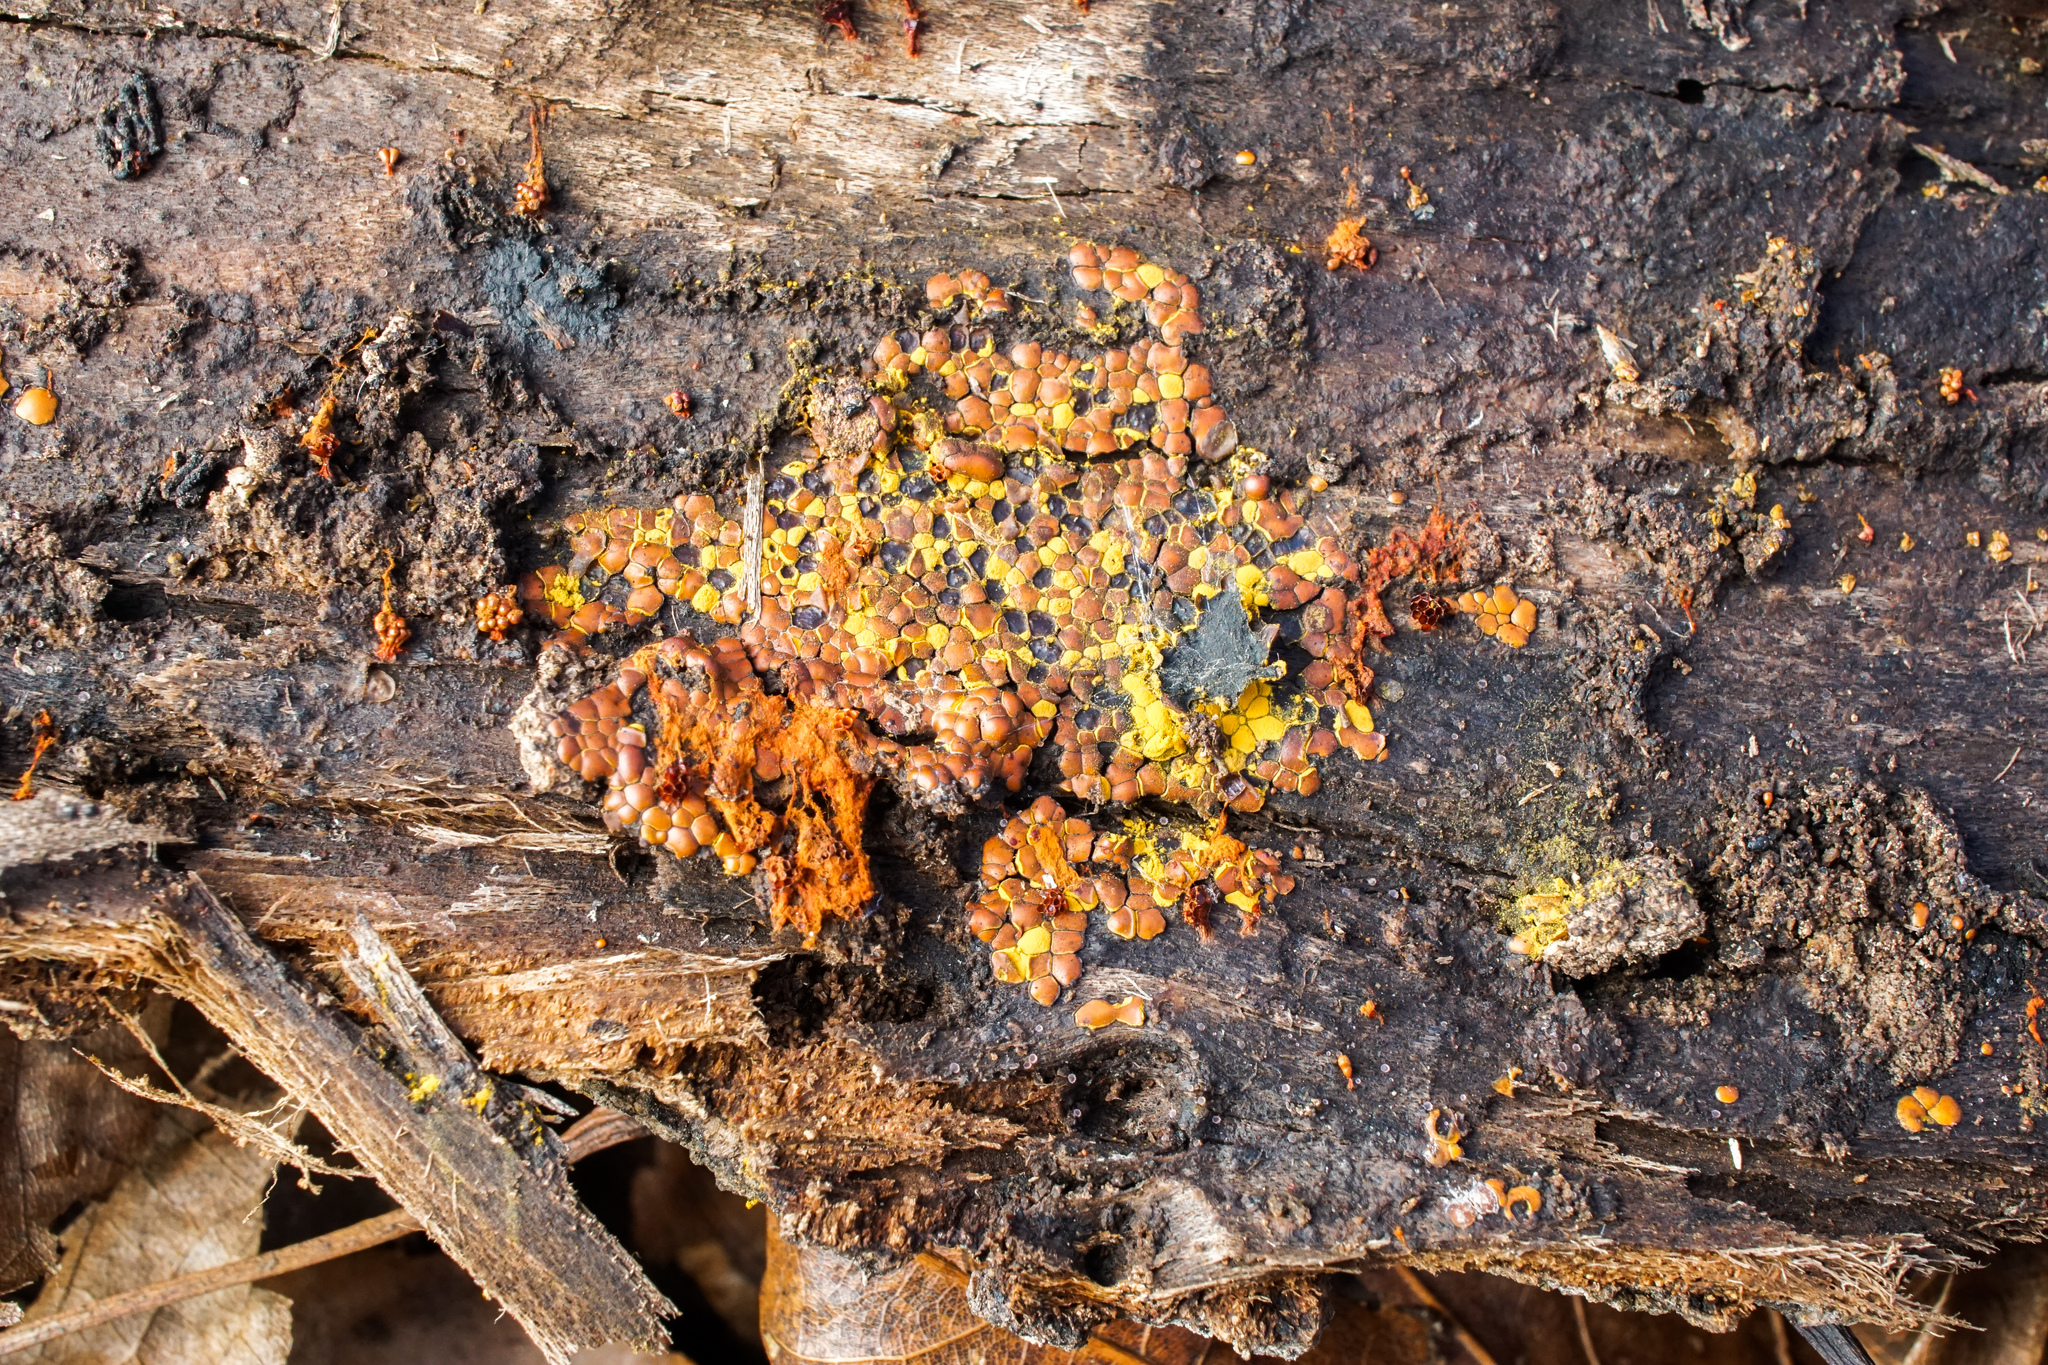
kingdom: Protozoa
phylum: Mycetozoa
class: Myxomycetes
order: Trichiales
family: Trichiaceae
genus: Perichaena
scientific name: Perichaena depressa
